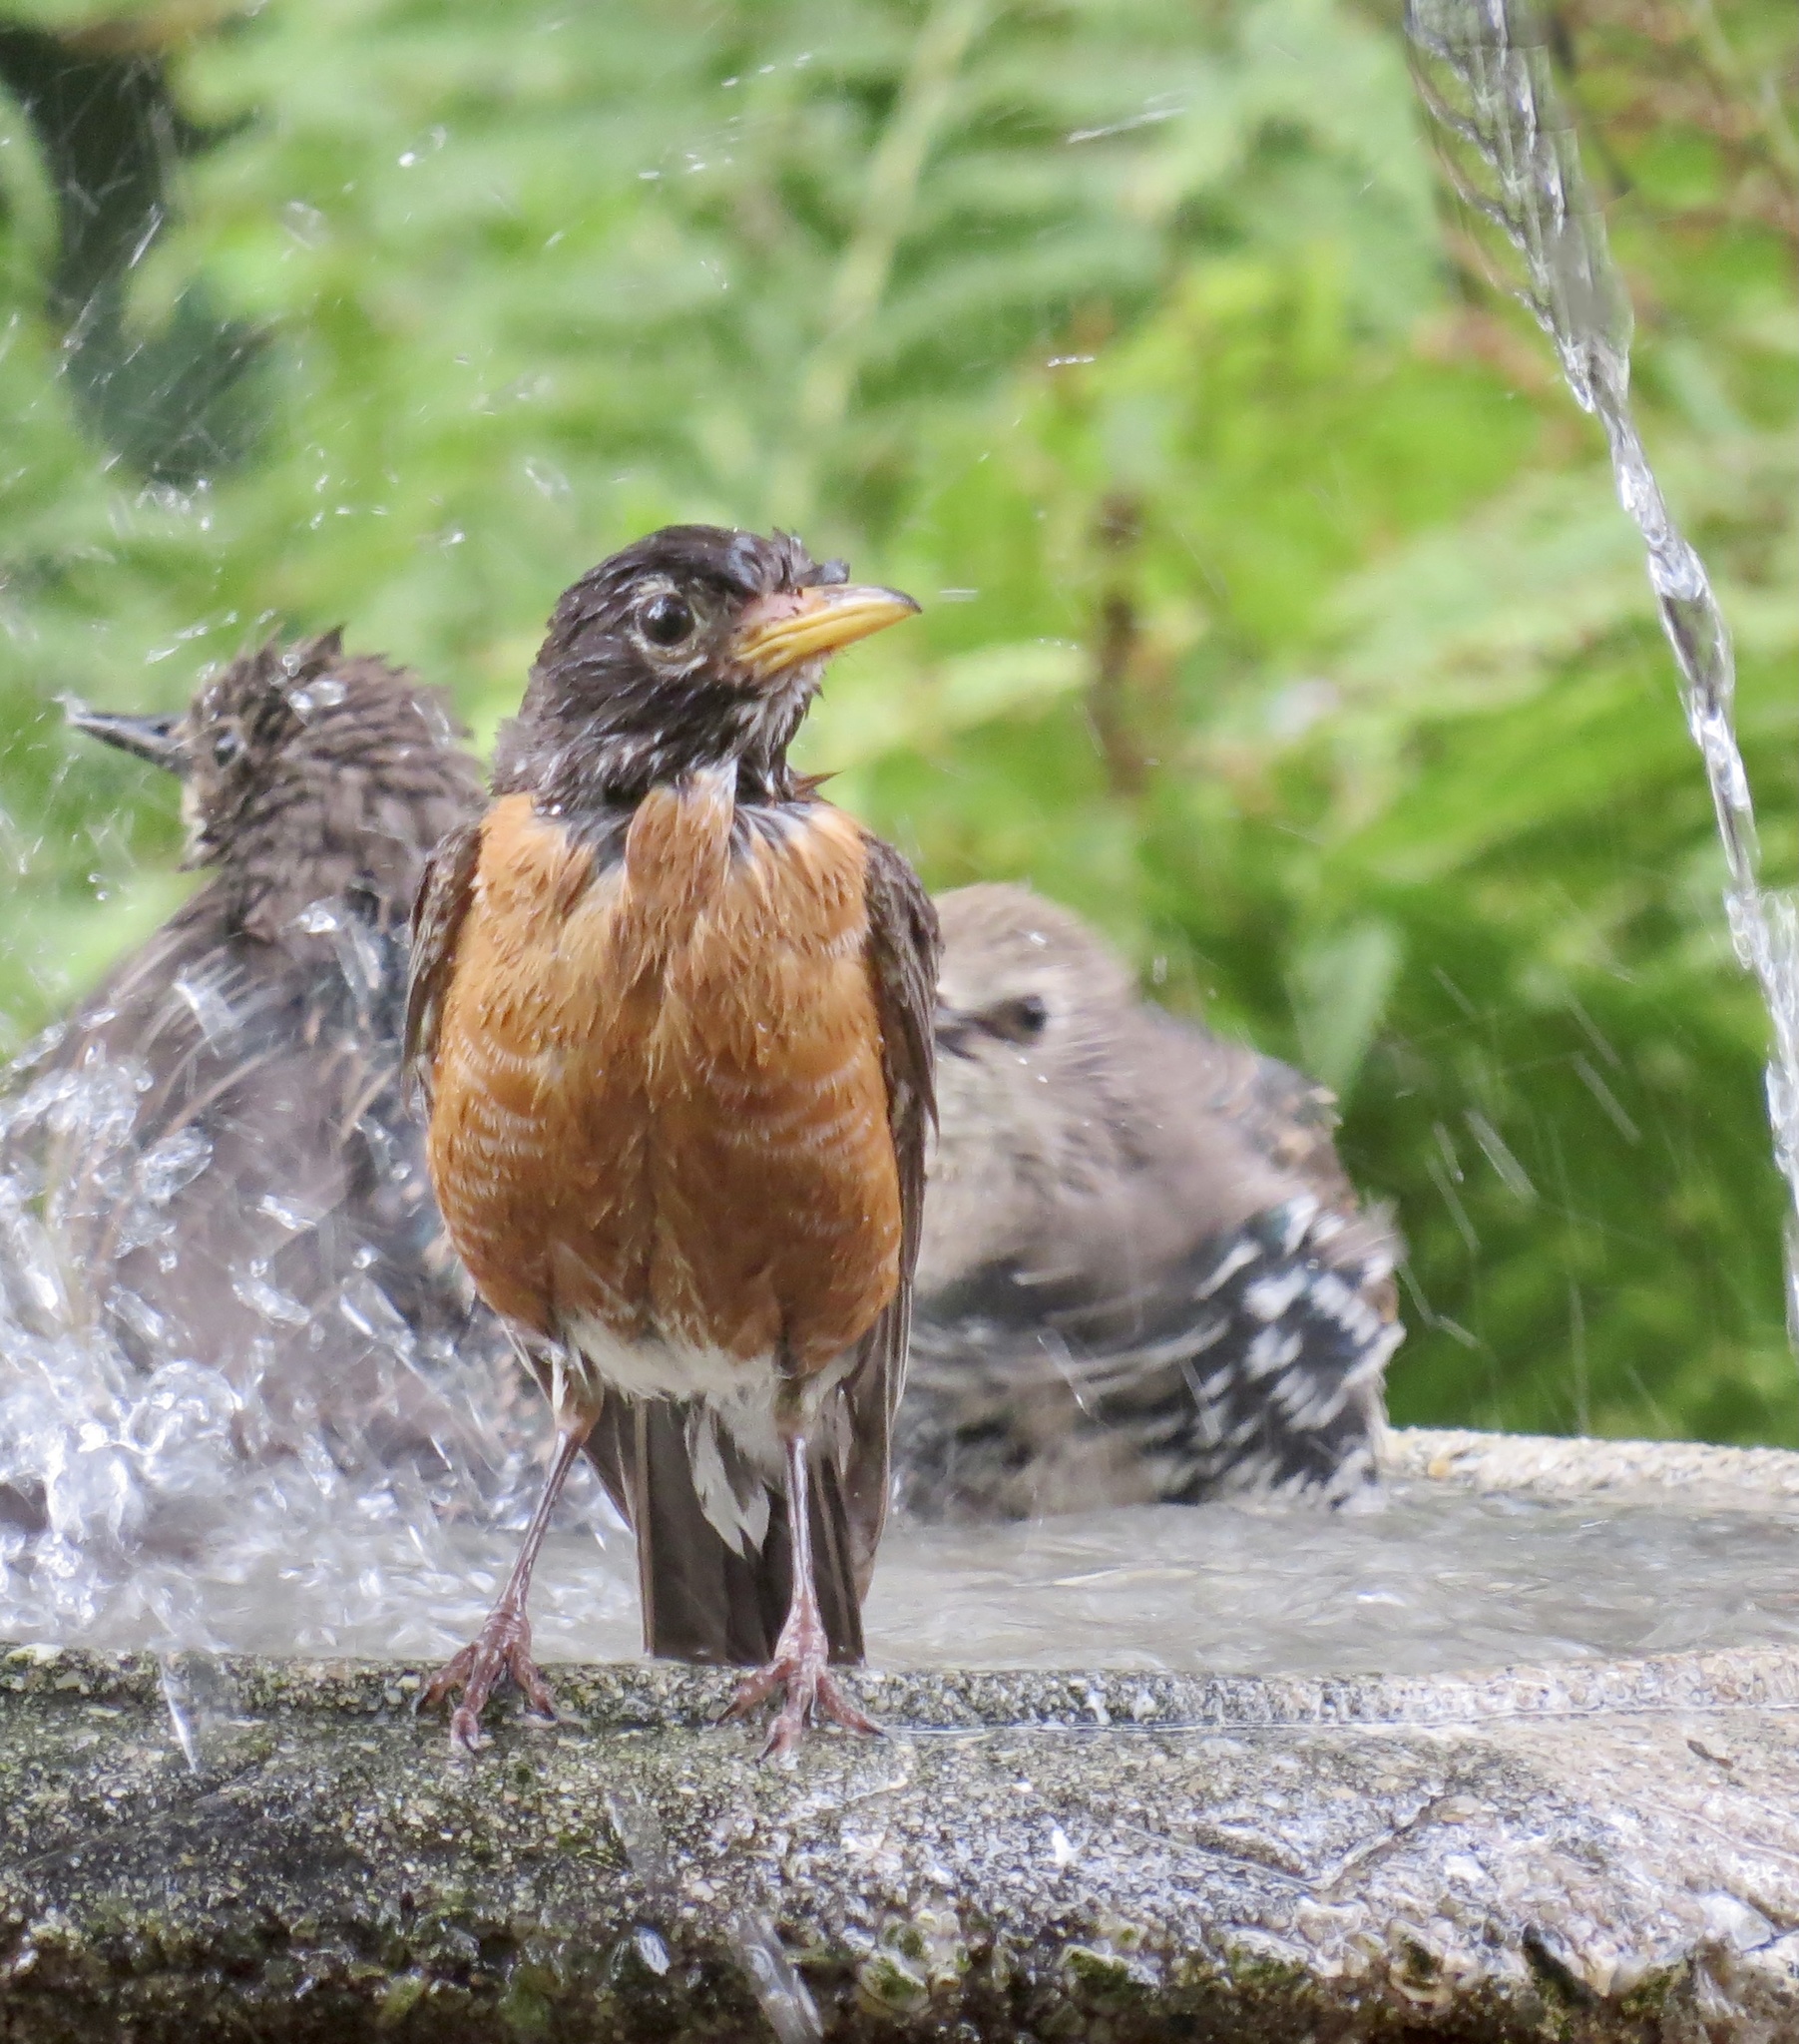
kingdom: Animalia
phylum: Chordata
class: Aves
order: Passeriformes
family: Turdidae
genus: Turdus
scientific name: Turdus migratorius
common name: American robin
